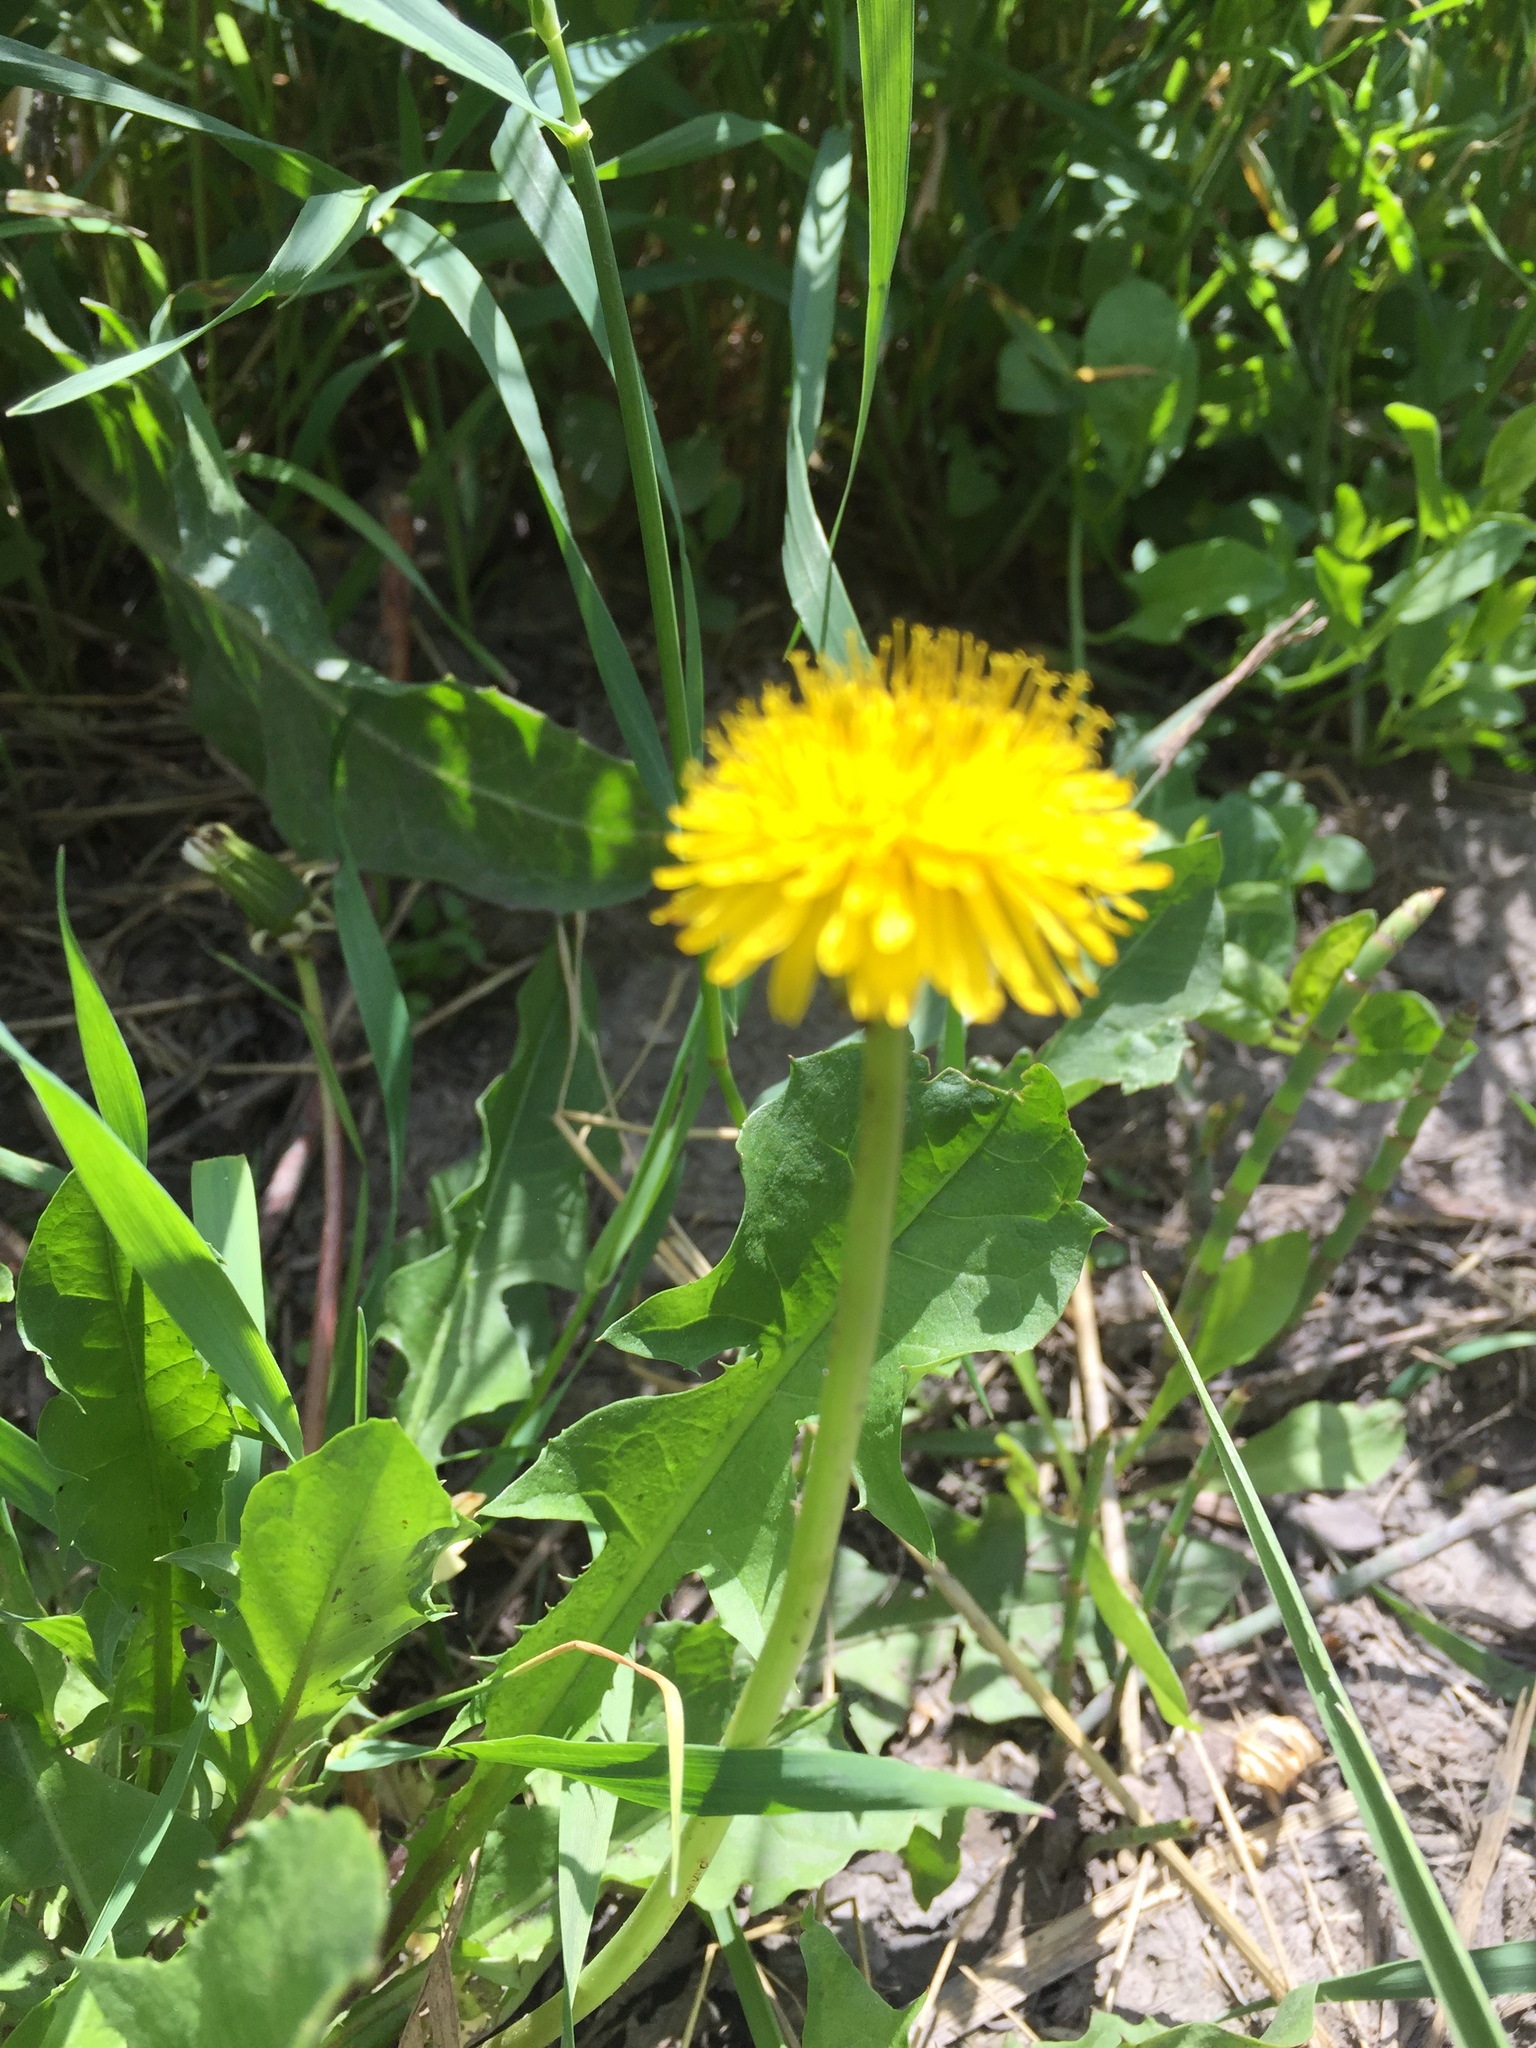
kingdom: Plantae
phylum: Tracheophyta
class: Magnoliopsida
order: Asterales
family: Asteraceae
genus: Taraxacum
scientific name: Taraxacum officinale
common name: Common dandelion
